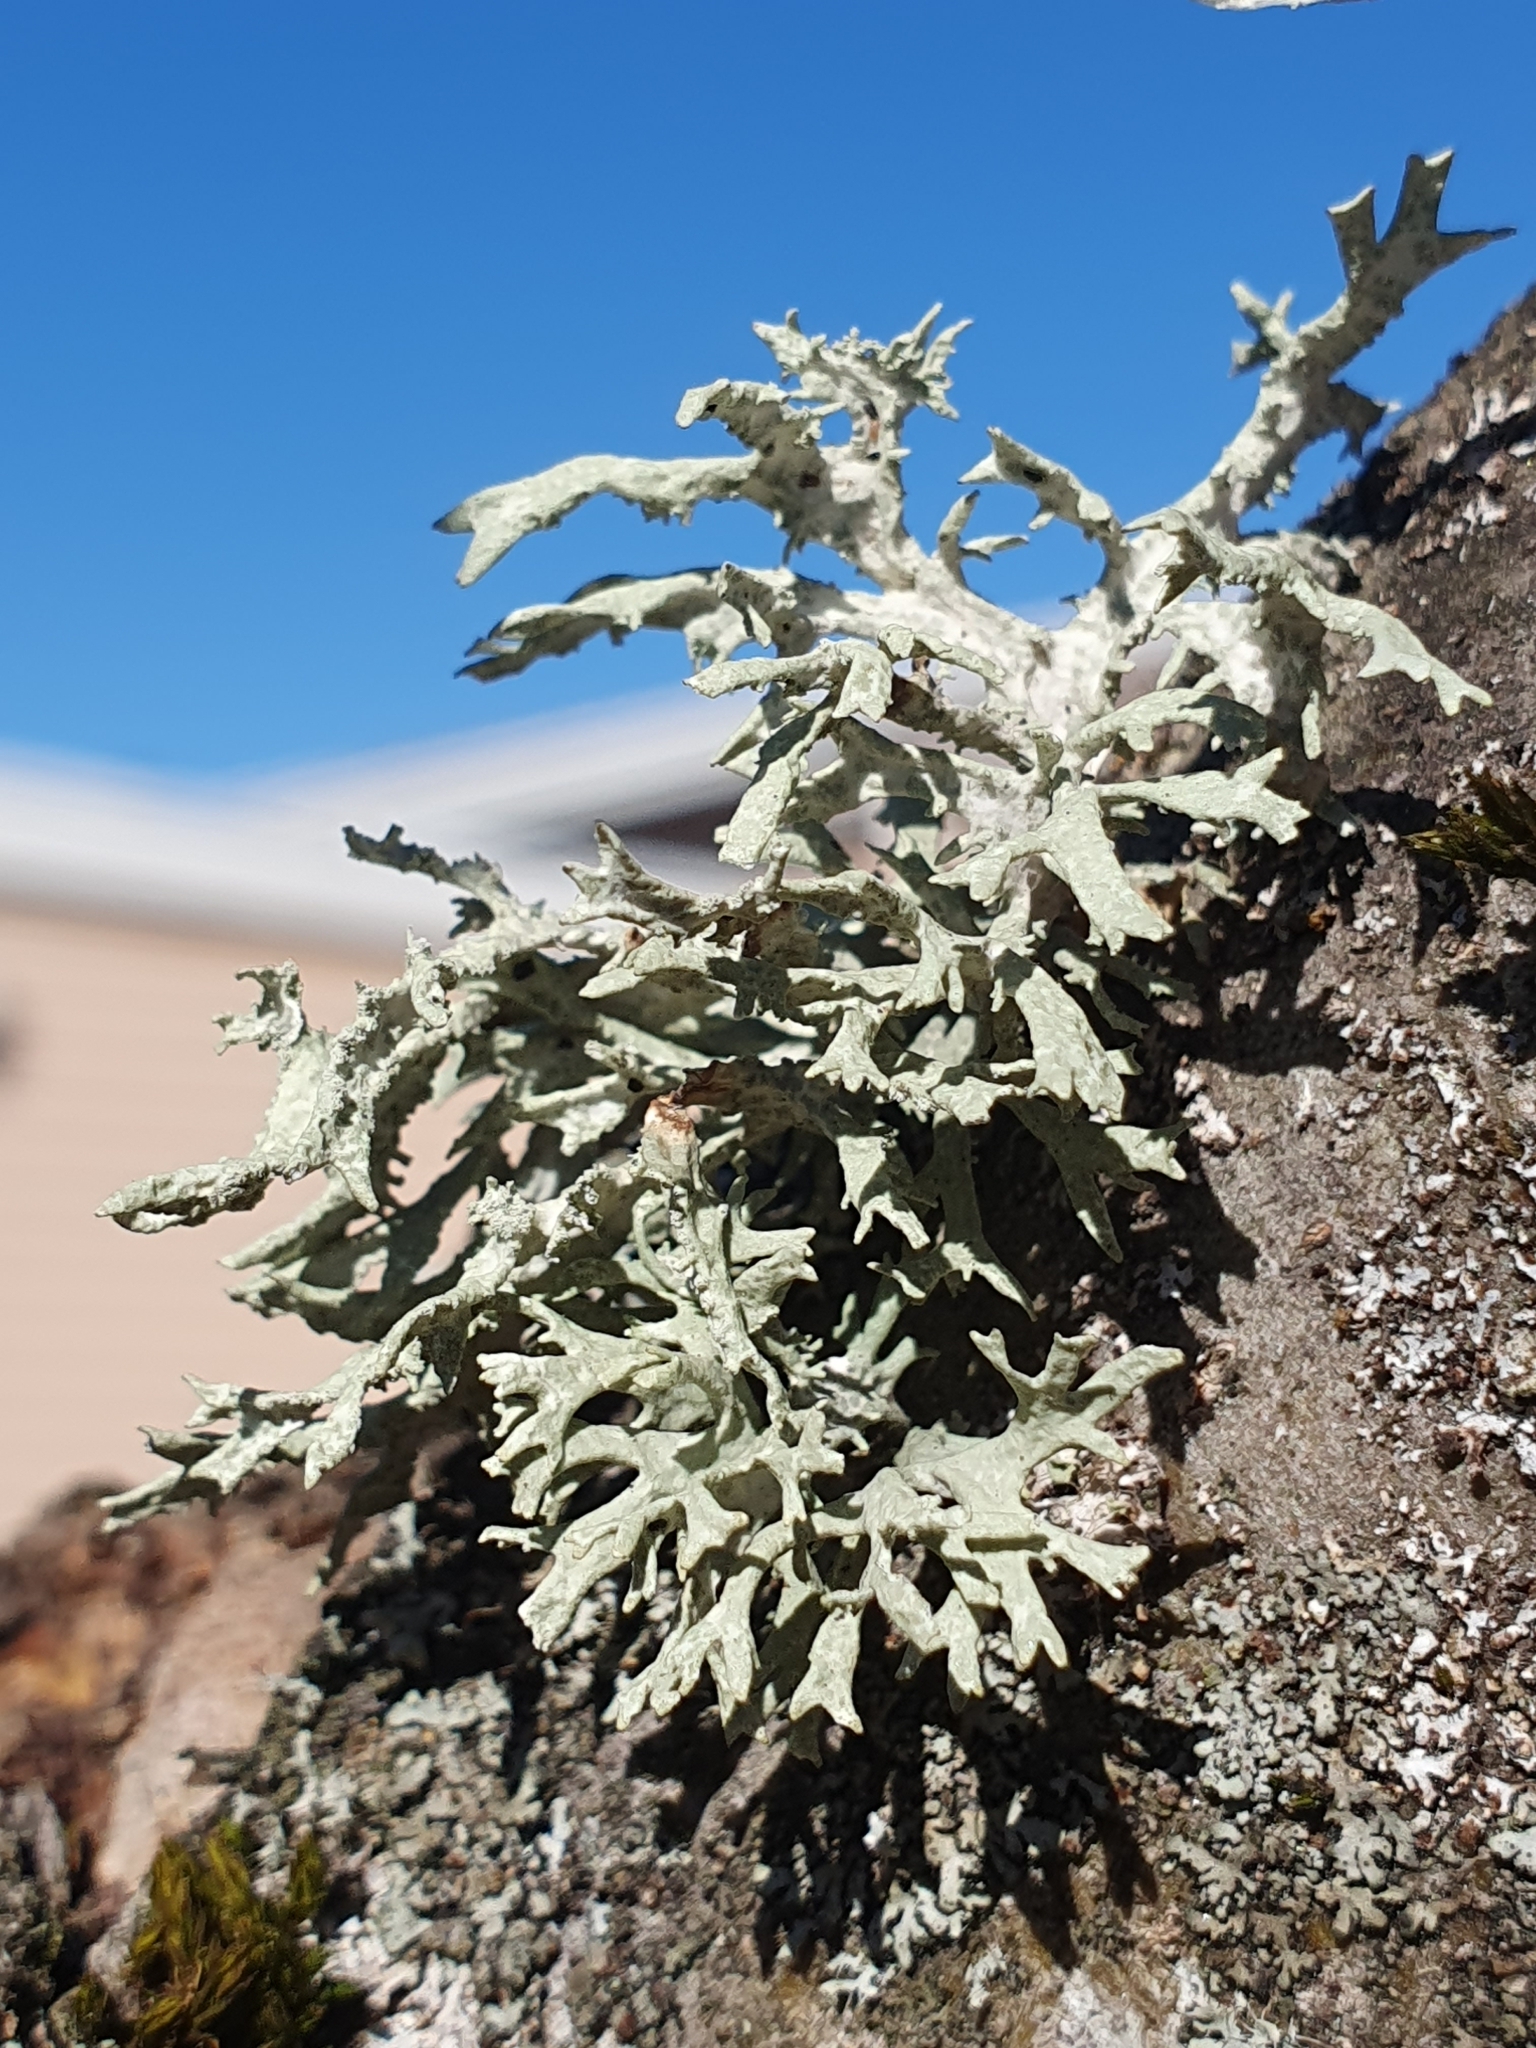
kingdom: Fungi
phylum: Ascomycota
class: Lecanoromycetes
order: Lecanorales
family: Parmeliaceae
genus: Evernia
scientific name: Evernia prunastri
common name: Oak moss
